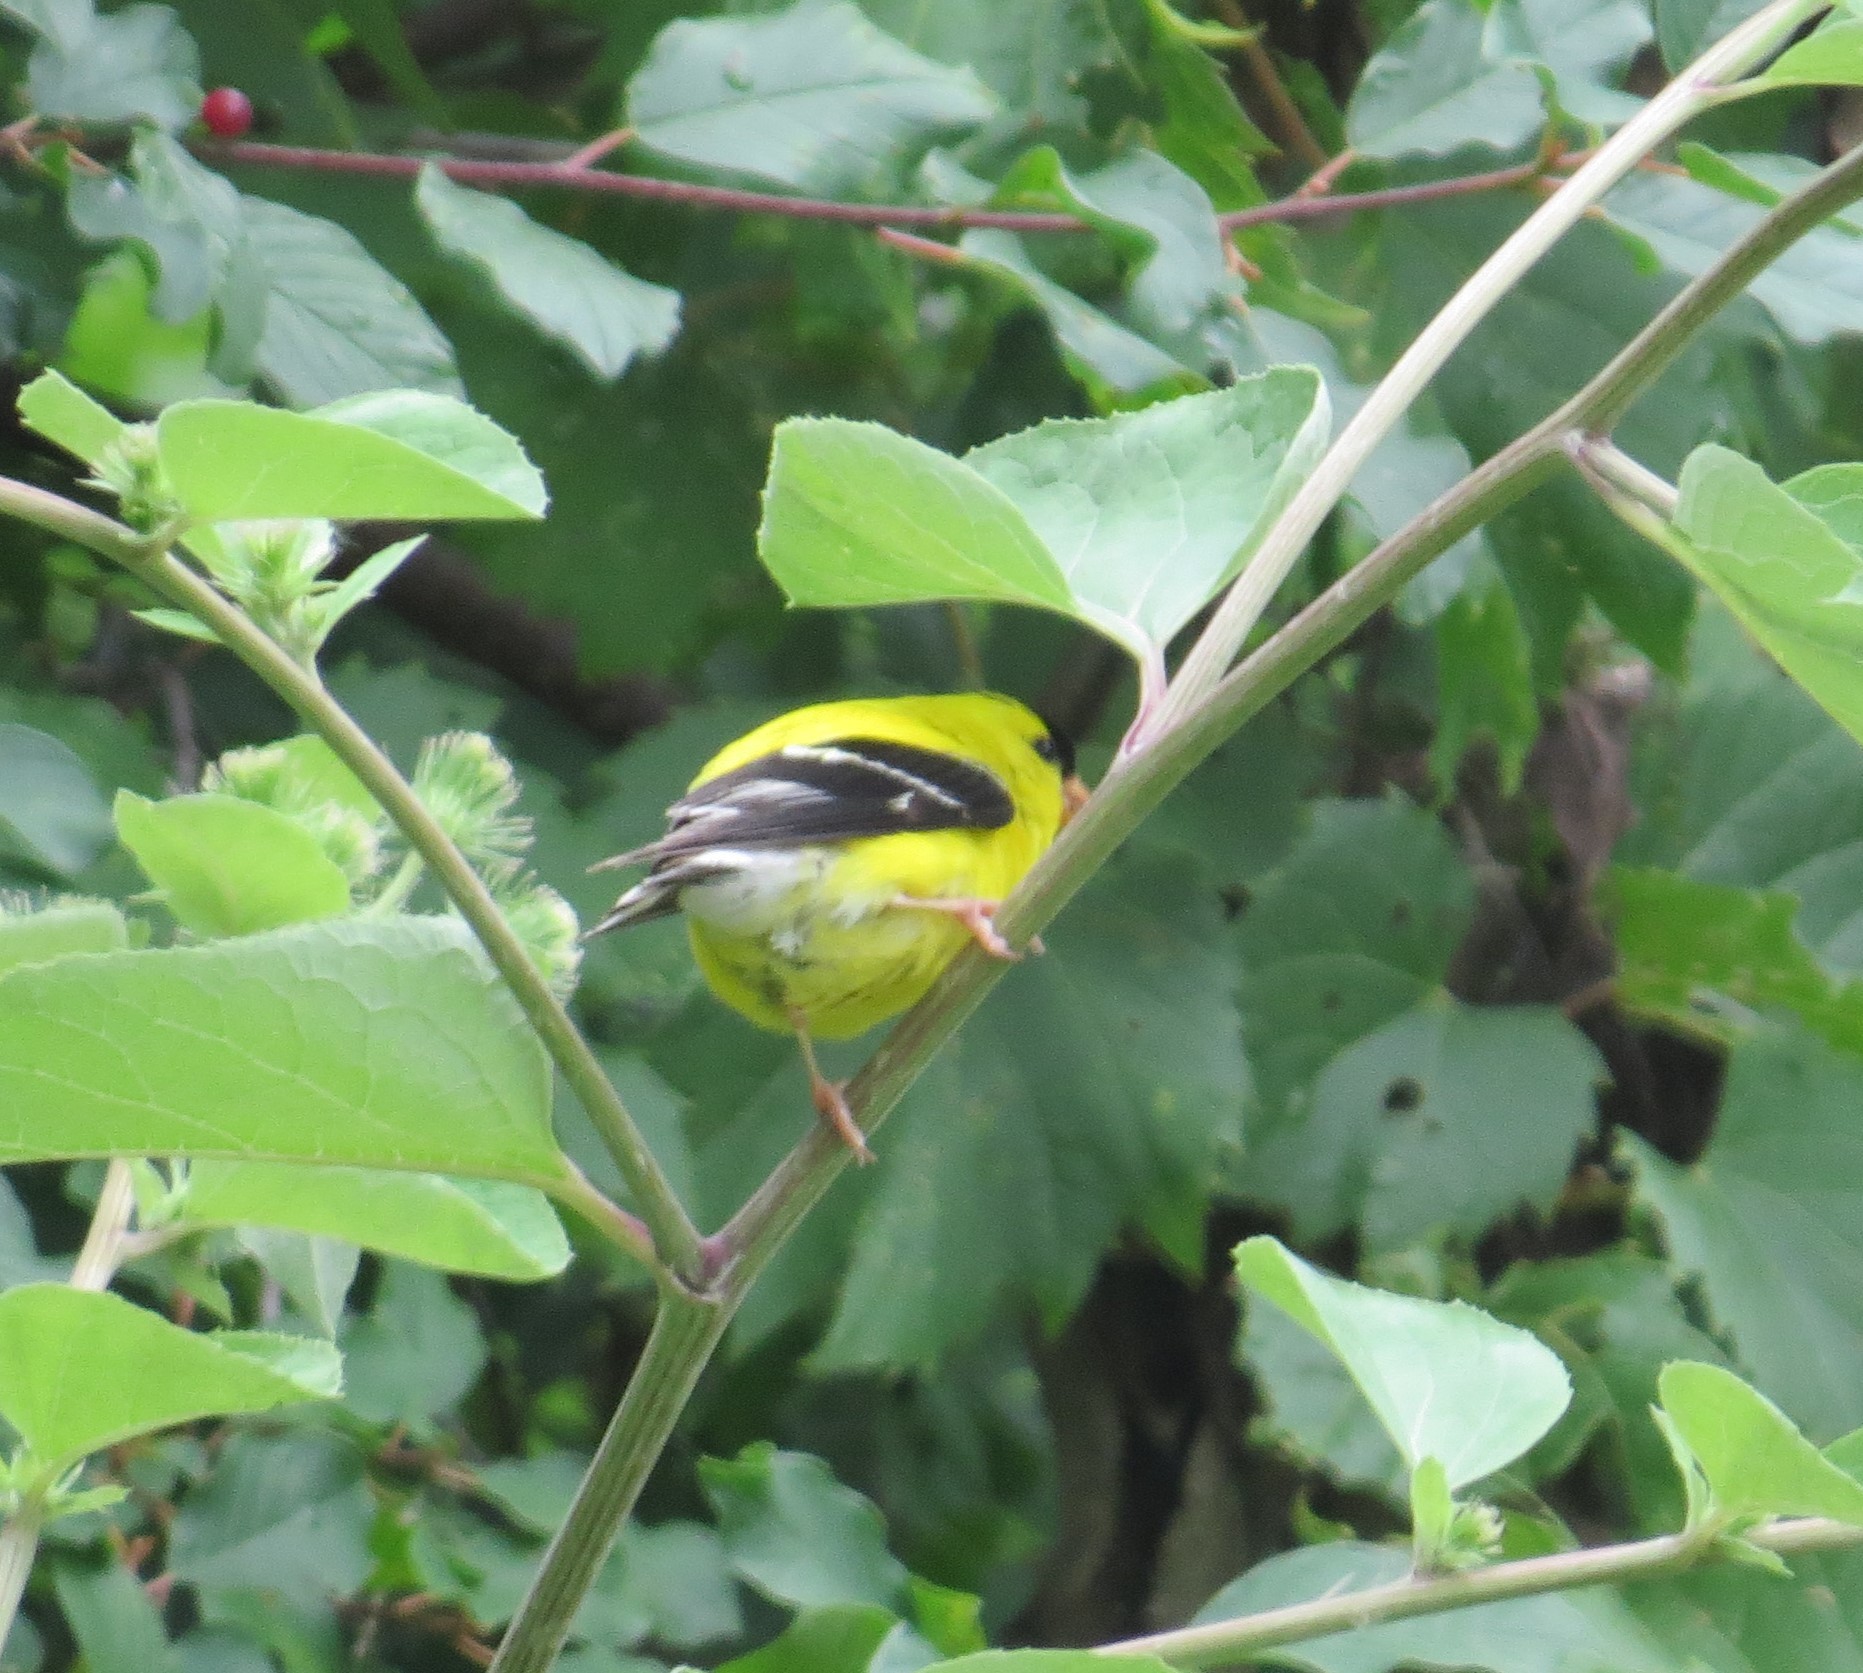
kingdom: Animalia
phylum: Chordata
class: Aves
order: Passeriformes
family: Fringillidae
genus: Spinus
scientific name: Spinus tristis
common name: American goldfinch
